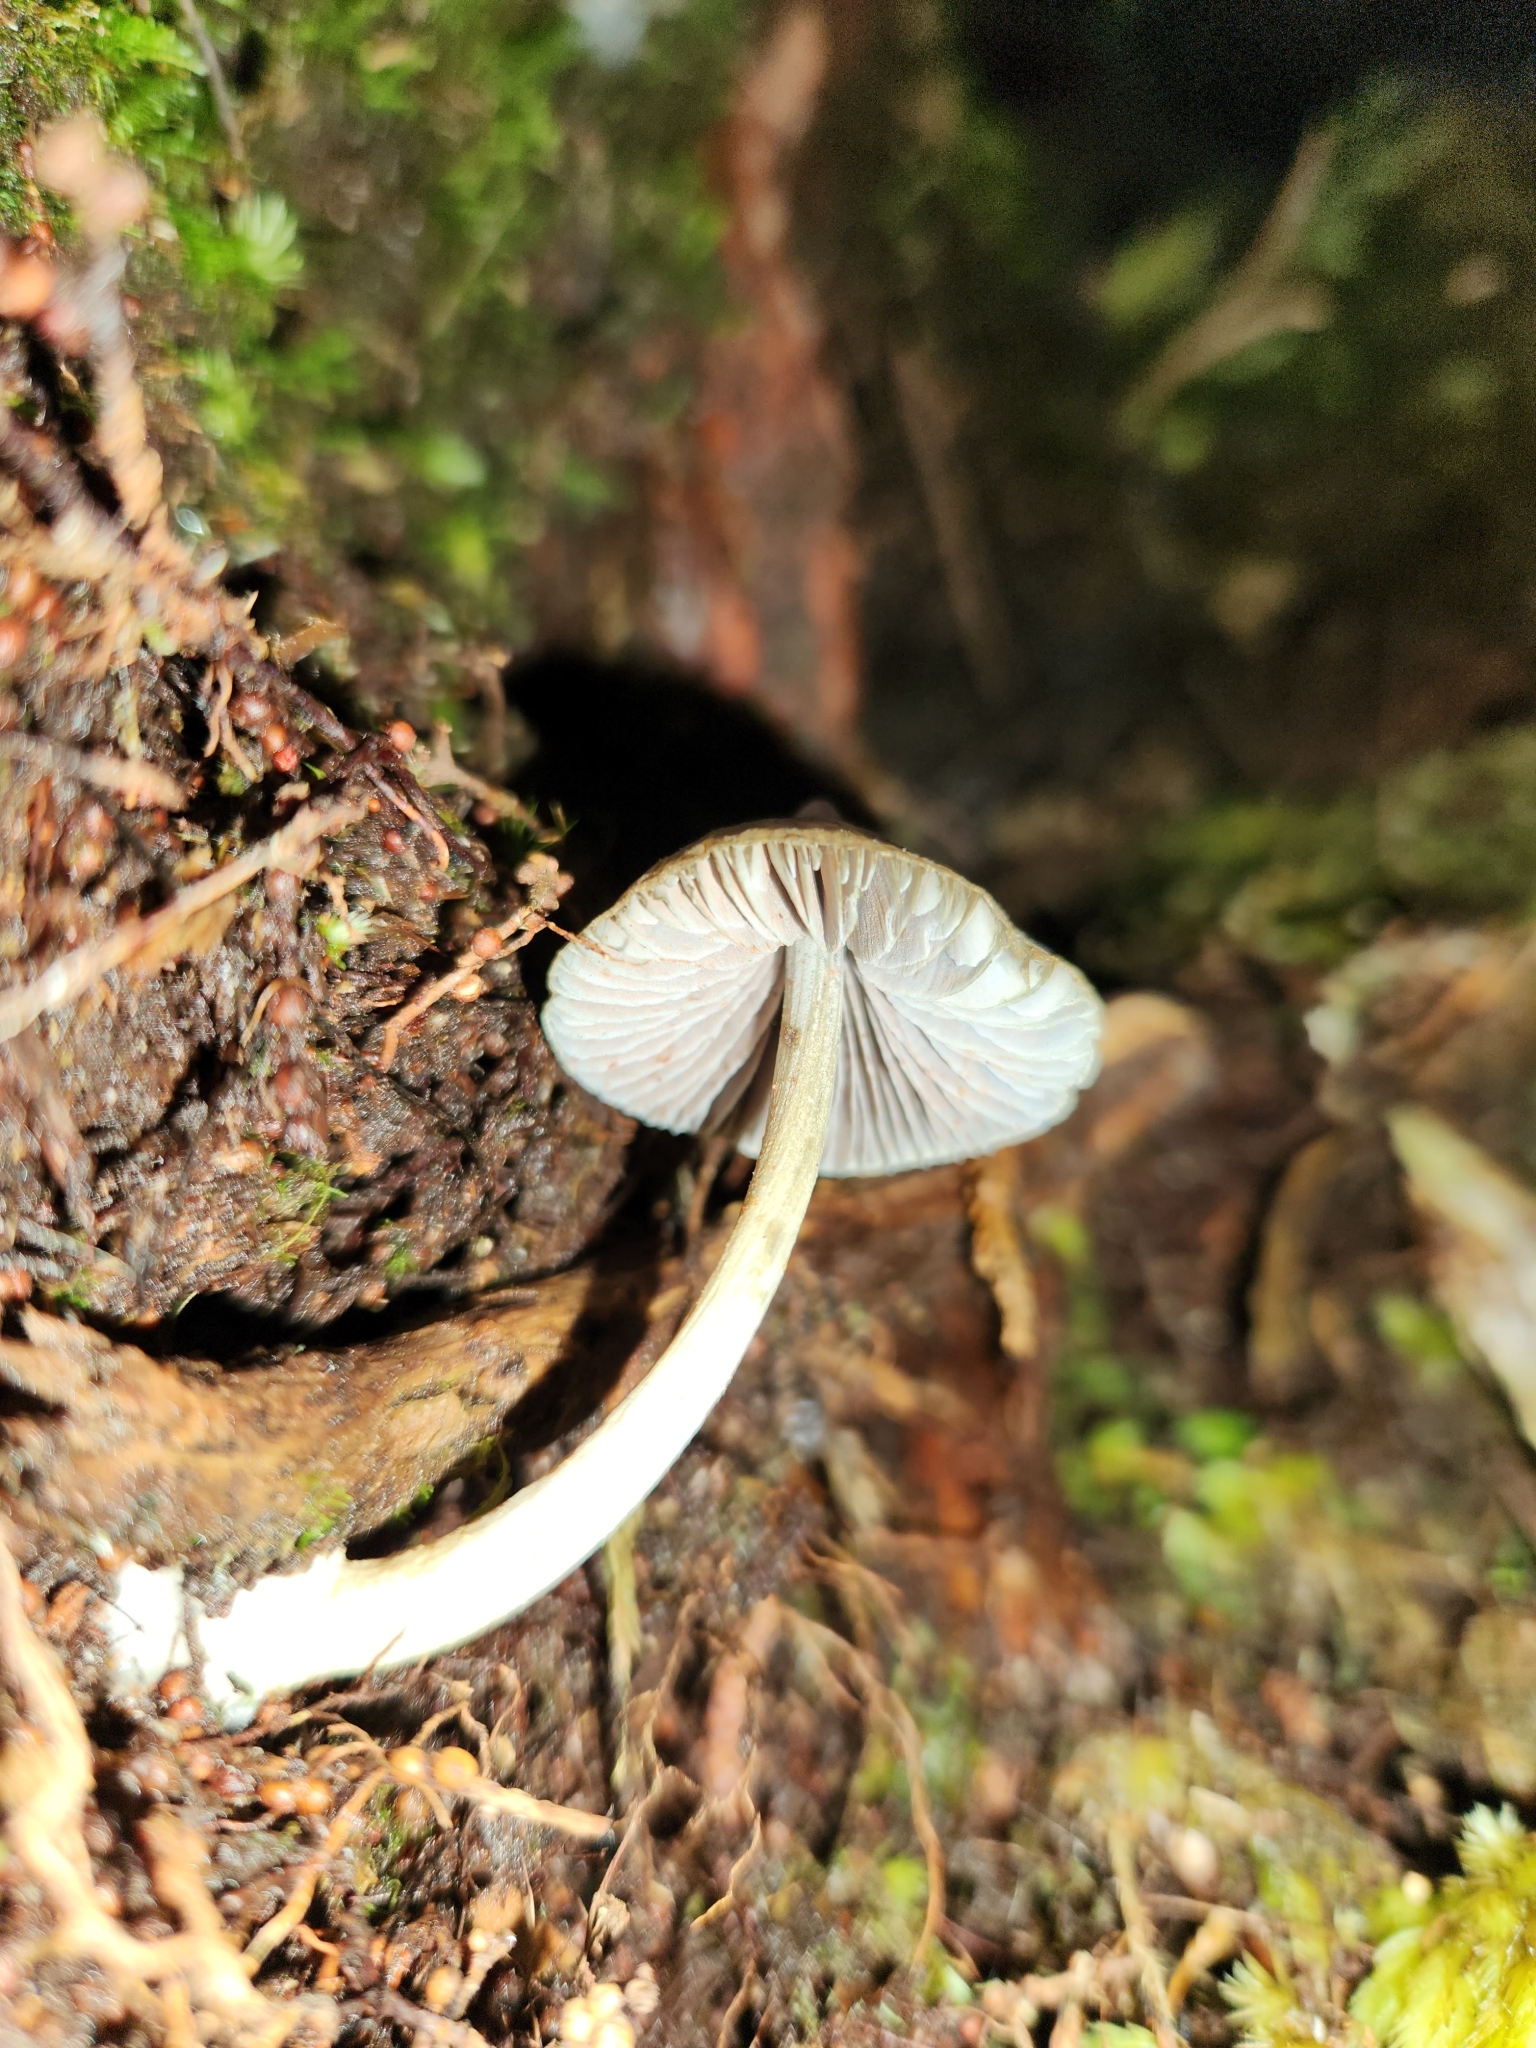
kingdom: Fungi
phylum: Basidiomycota
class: Agaricomycetes
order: Agaricales
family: Entolomataceae
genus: Entoloma
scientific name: Entoloma canoconicum
